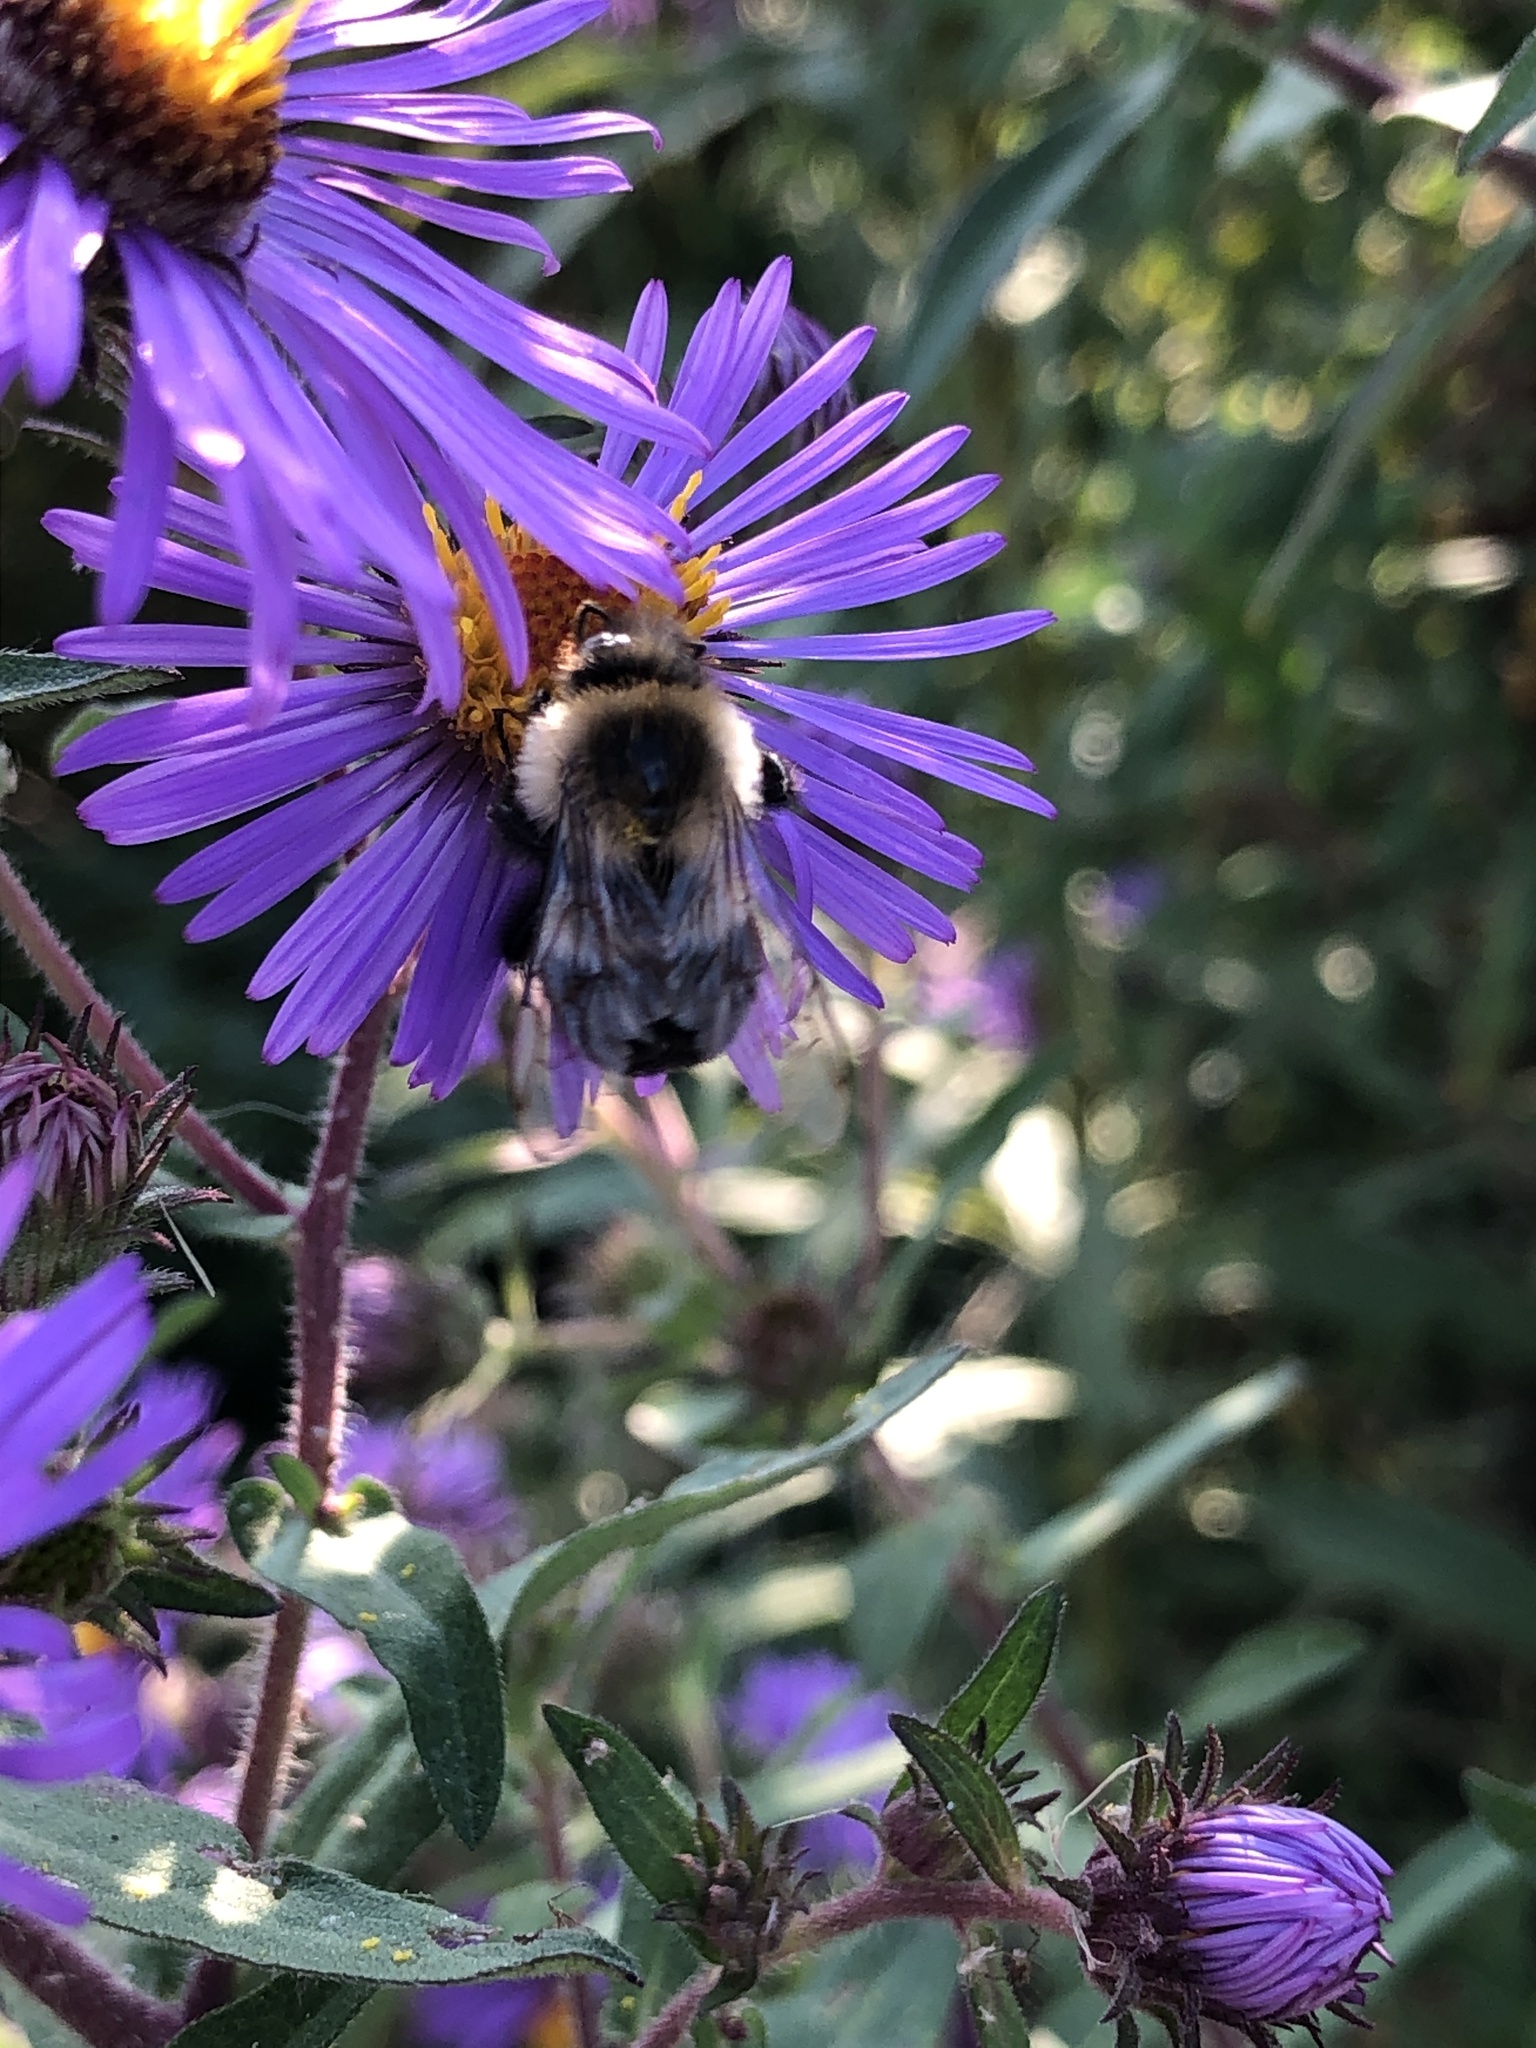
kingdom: Animalia
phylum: Arthropoda
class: Insecta
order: Hymenoptera
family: Apidae
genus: Bombus
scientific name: Bombus impatiens
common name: Common eastern bumble bee
